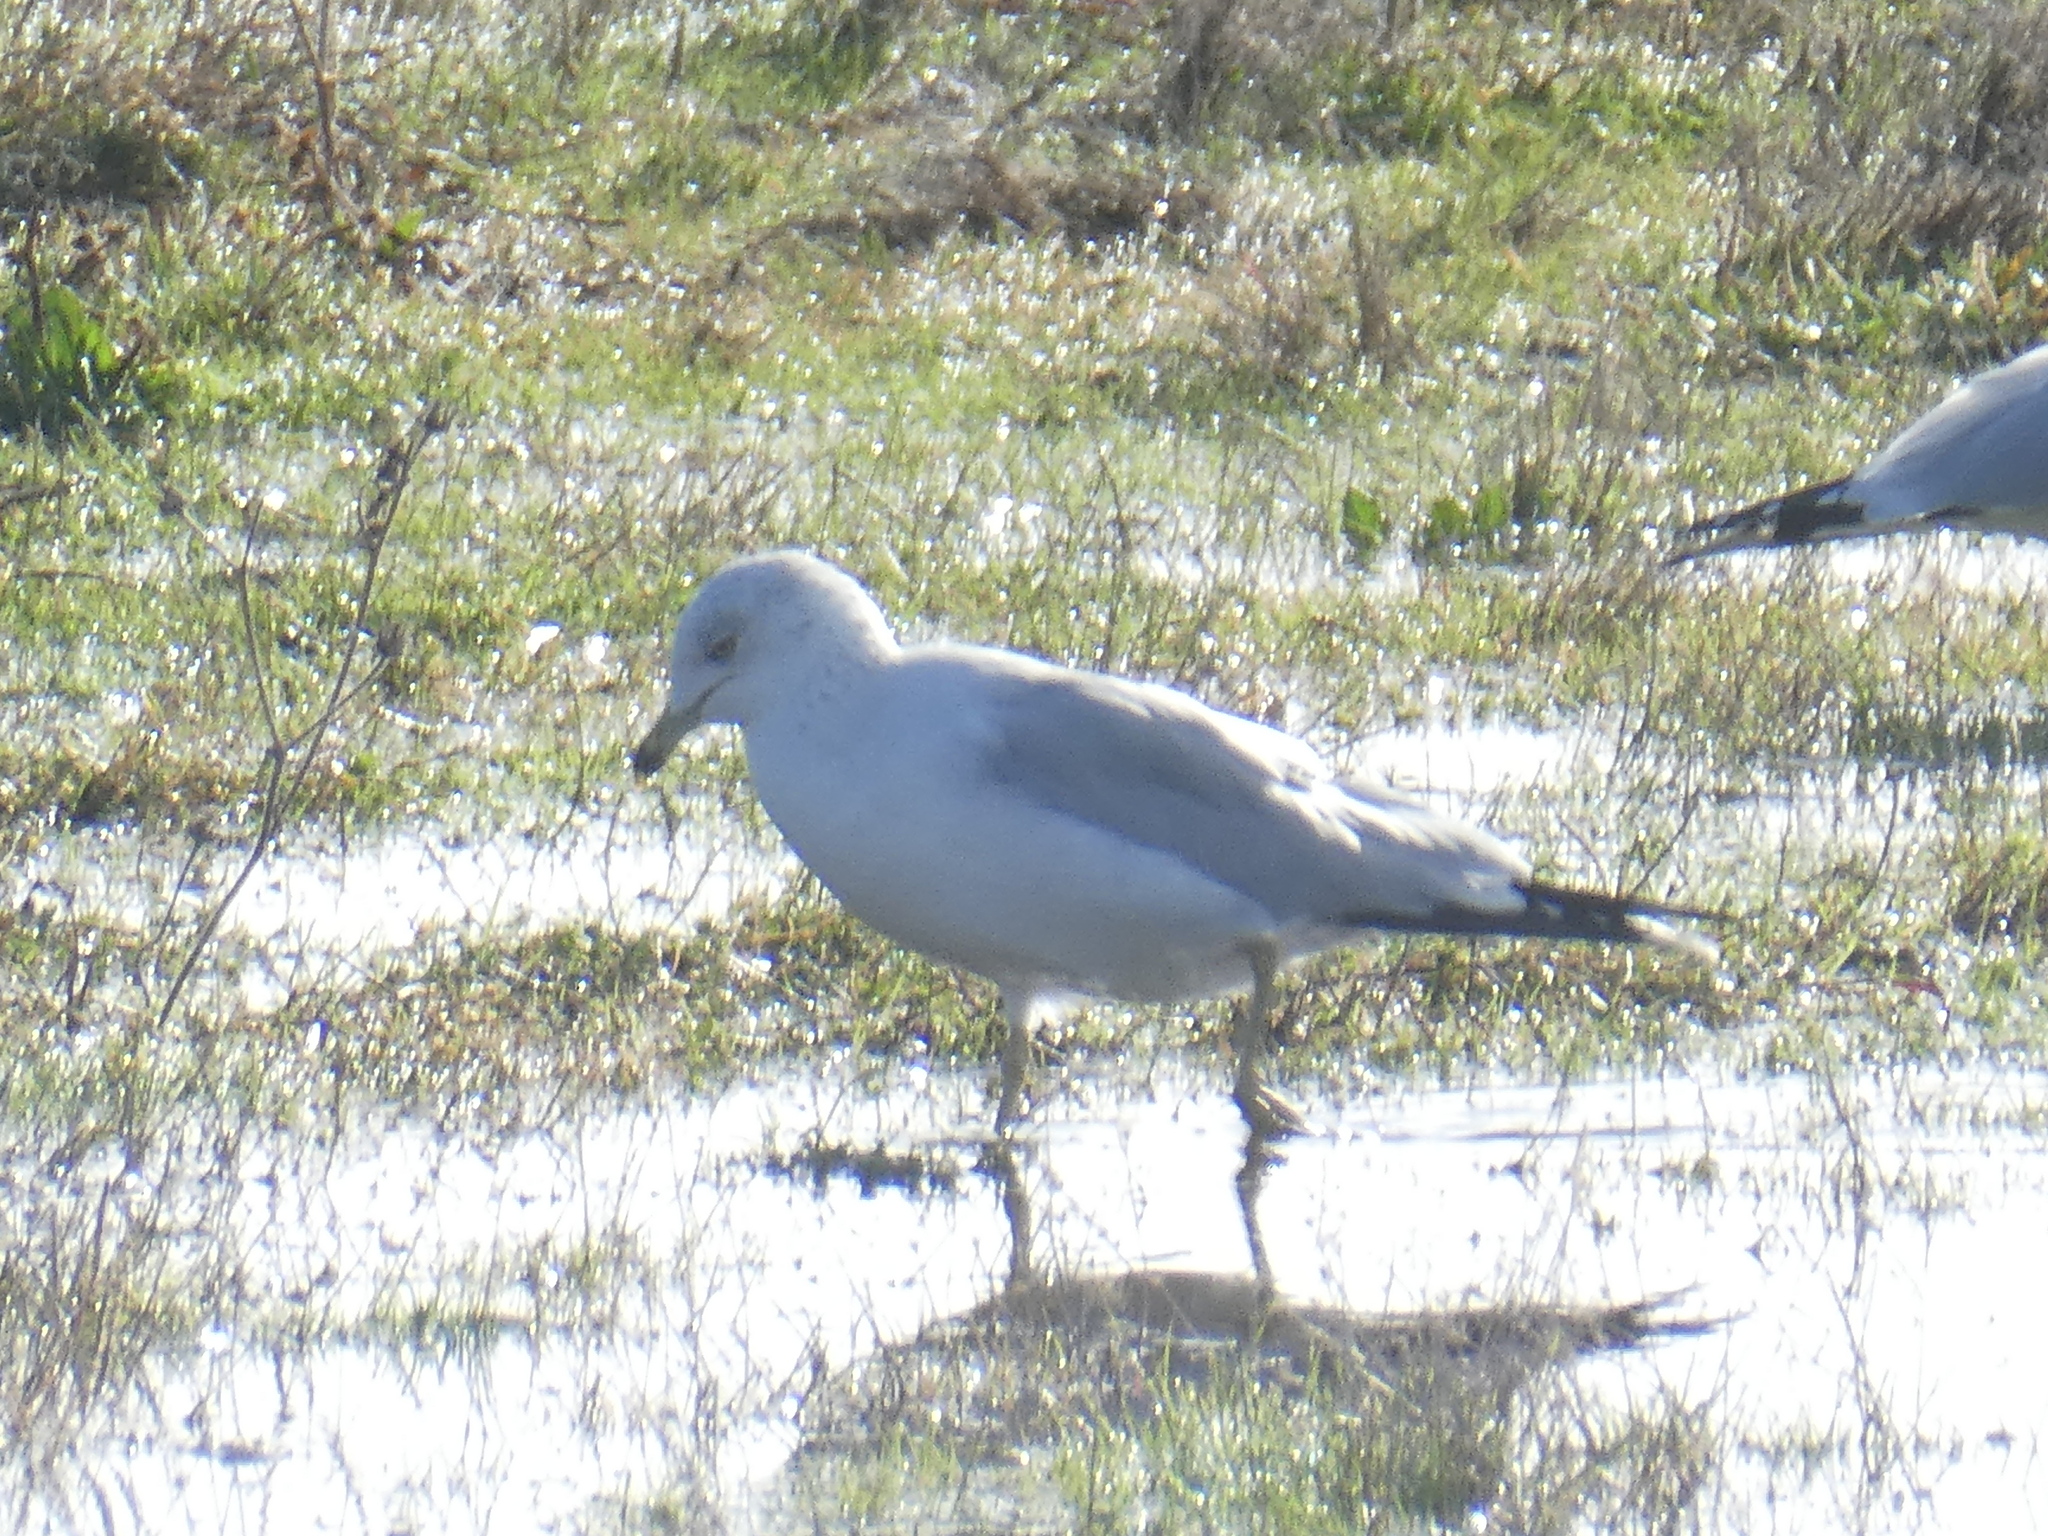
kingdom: Animalia
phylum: Chordata
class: Aves
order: Charadriiformes
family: Laridae
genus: Larus
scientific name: Larus delawarensis
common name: Ring-billed gull
